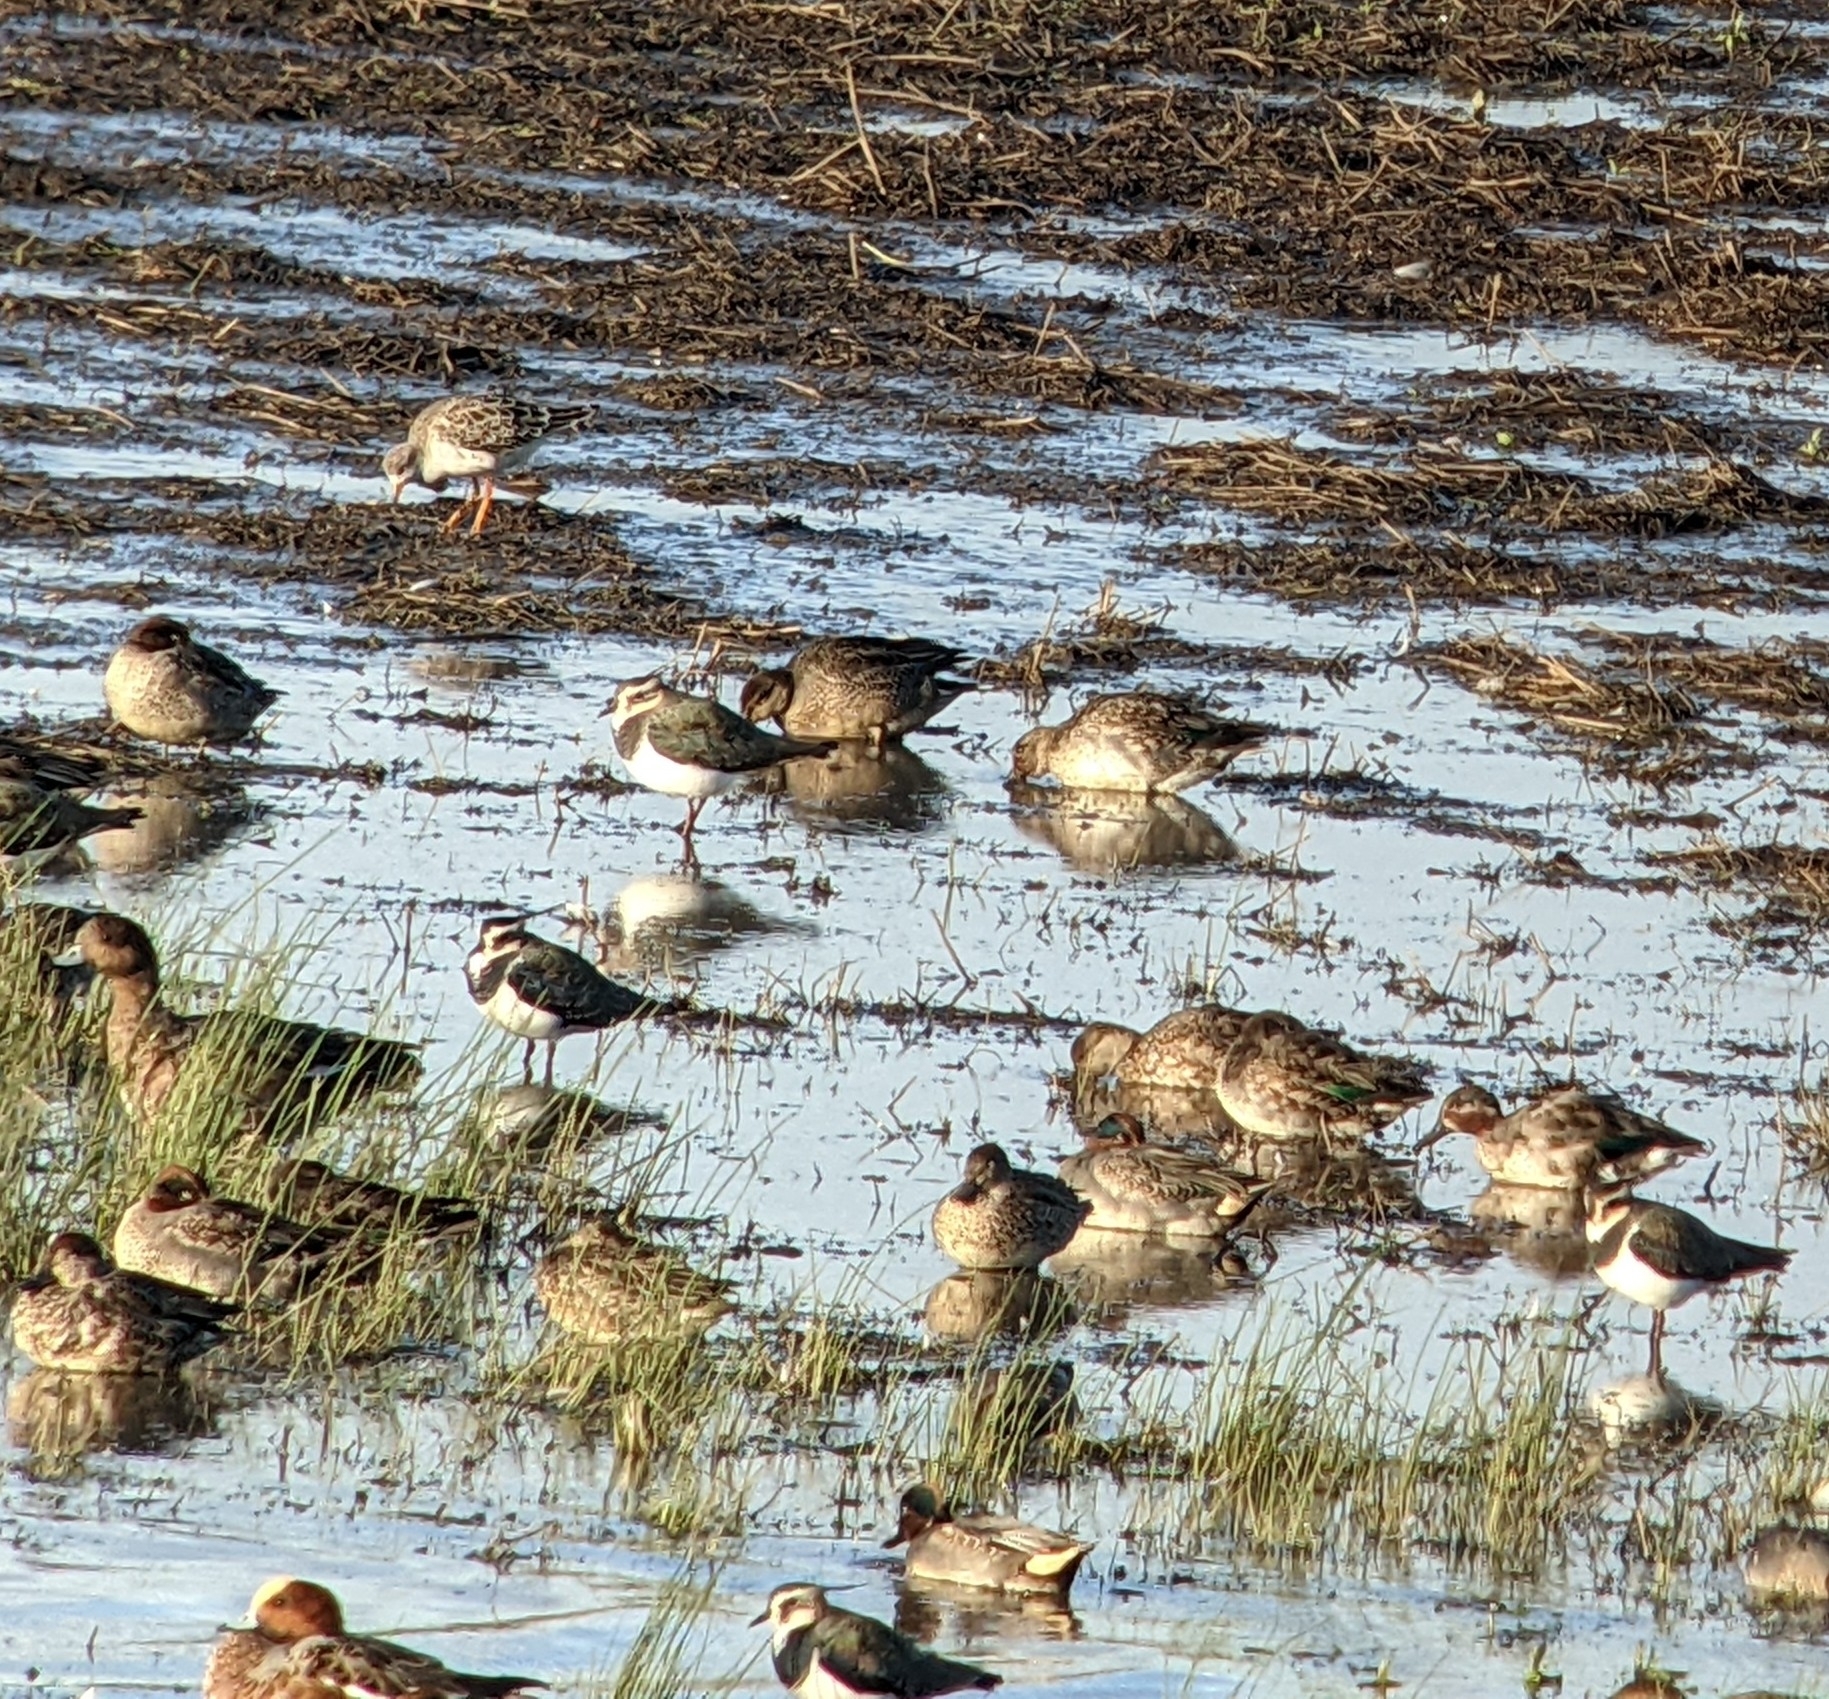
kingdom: Animalia
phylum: Chordata
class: Aves
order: Charadriiformes
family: Charadriidae
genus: Vanellus
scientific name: Vanellus vanellus
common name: Northern lapwing
